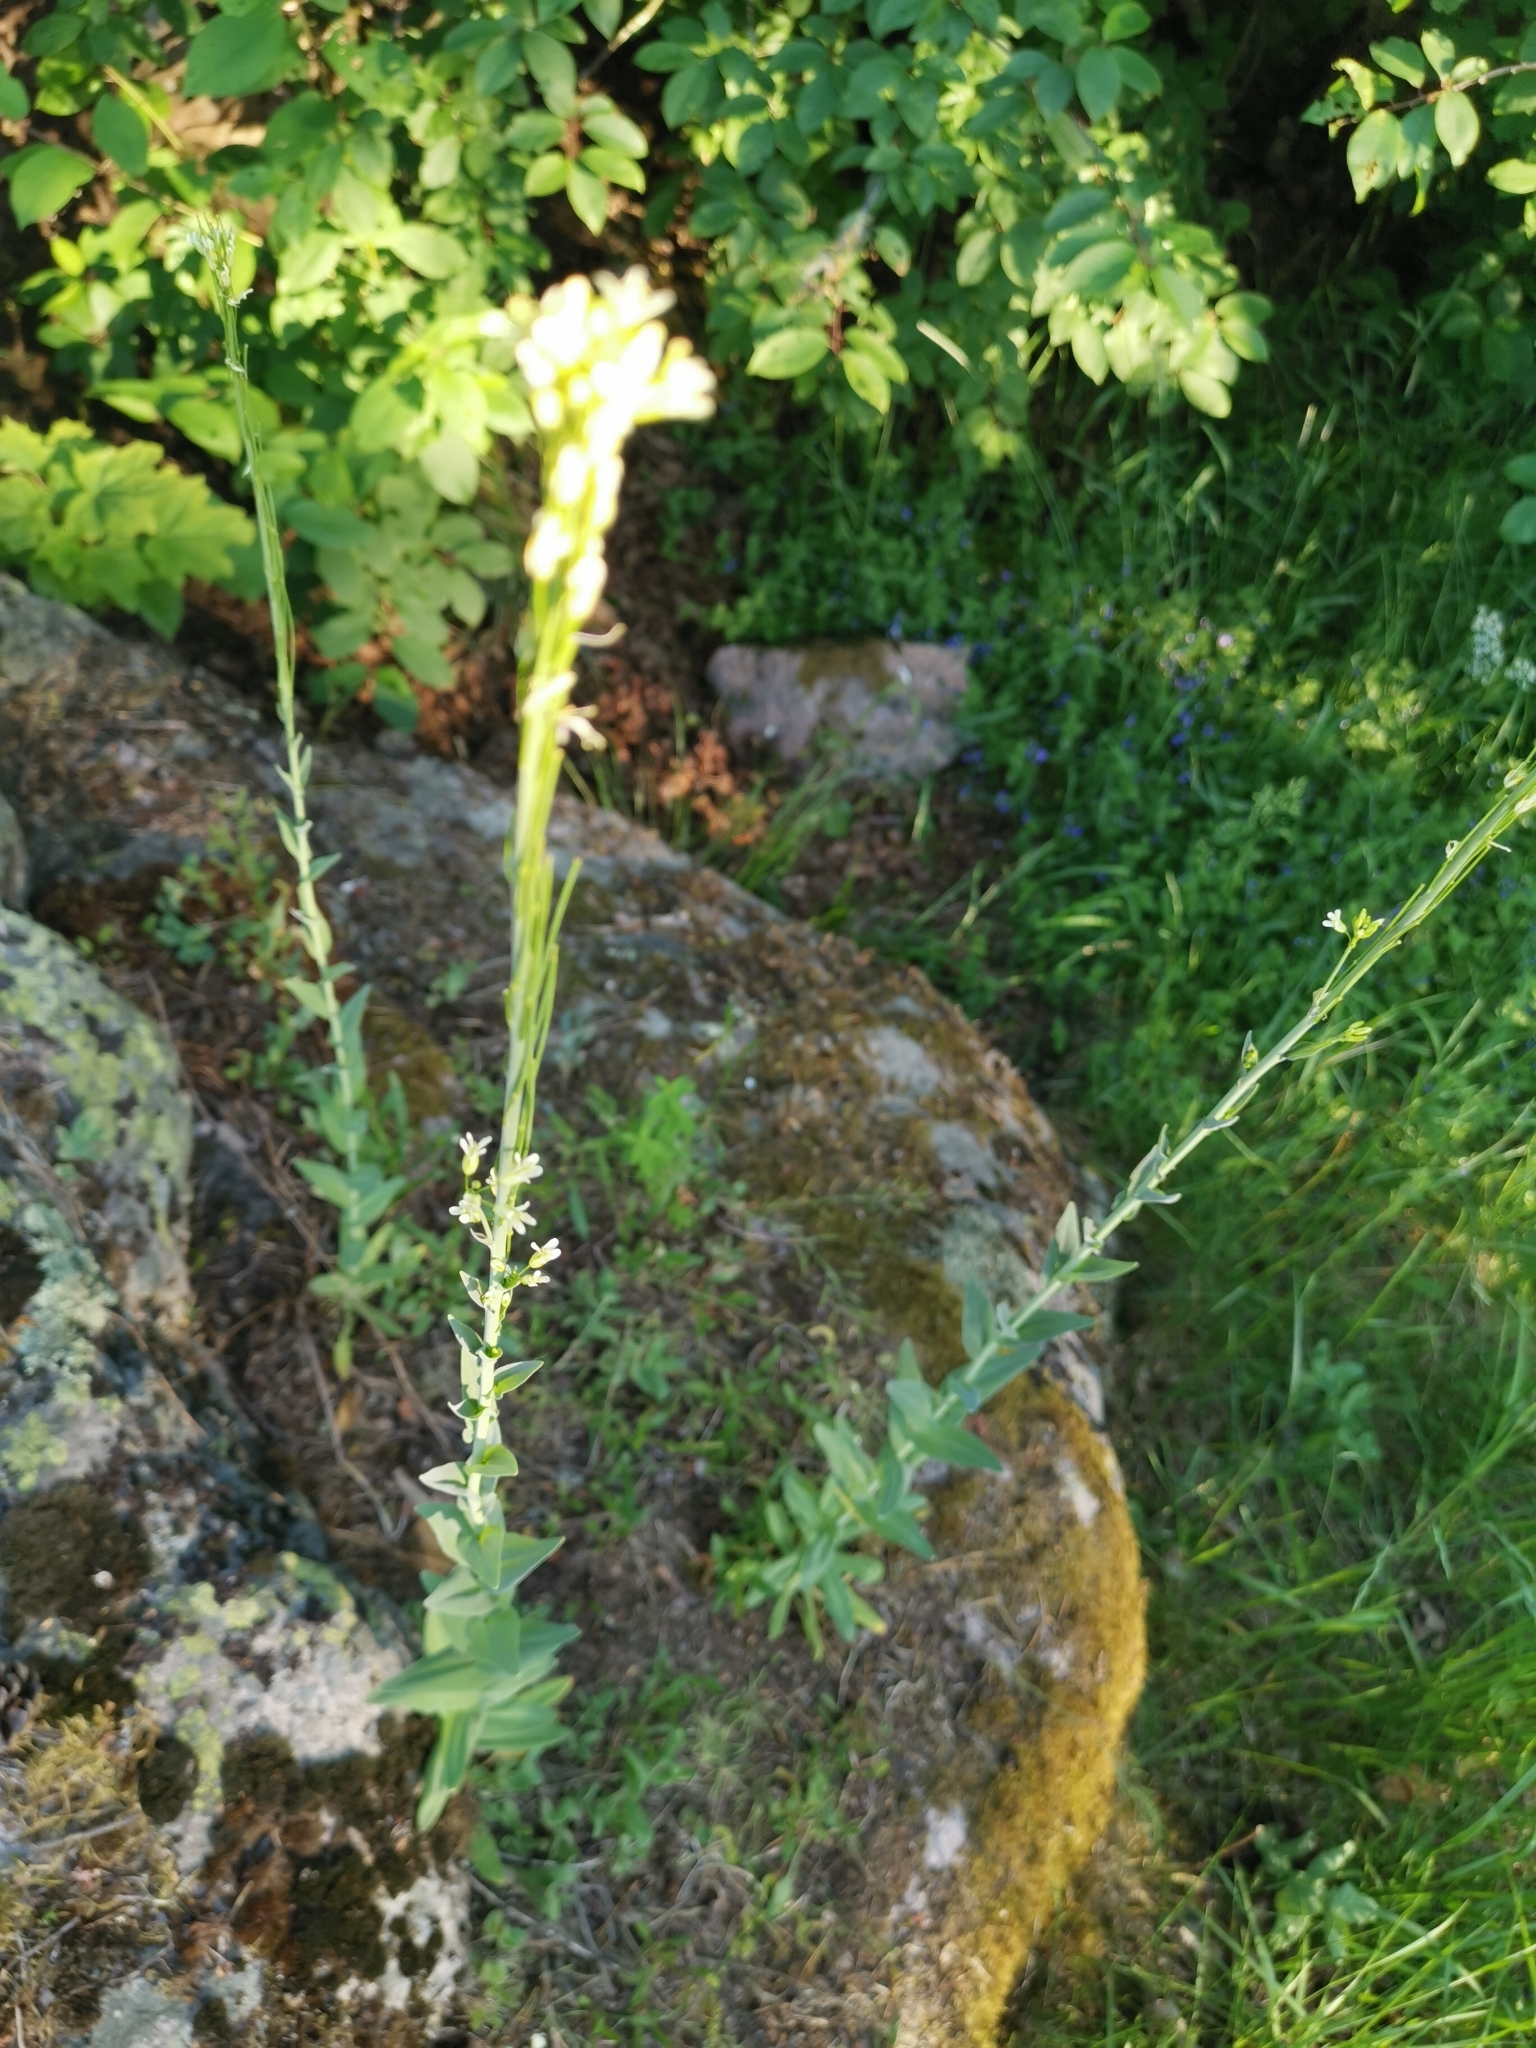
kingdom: Plantae
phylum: Tracheophyta
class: Magnoliopsida
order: Brassicales
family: Brassicaceae
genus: Turritis
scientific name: Turritis glabra
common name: Tower rockcress
